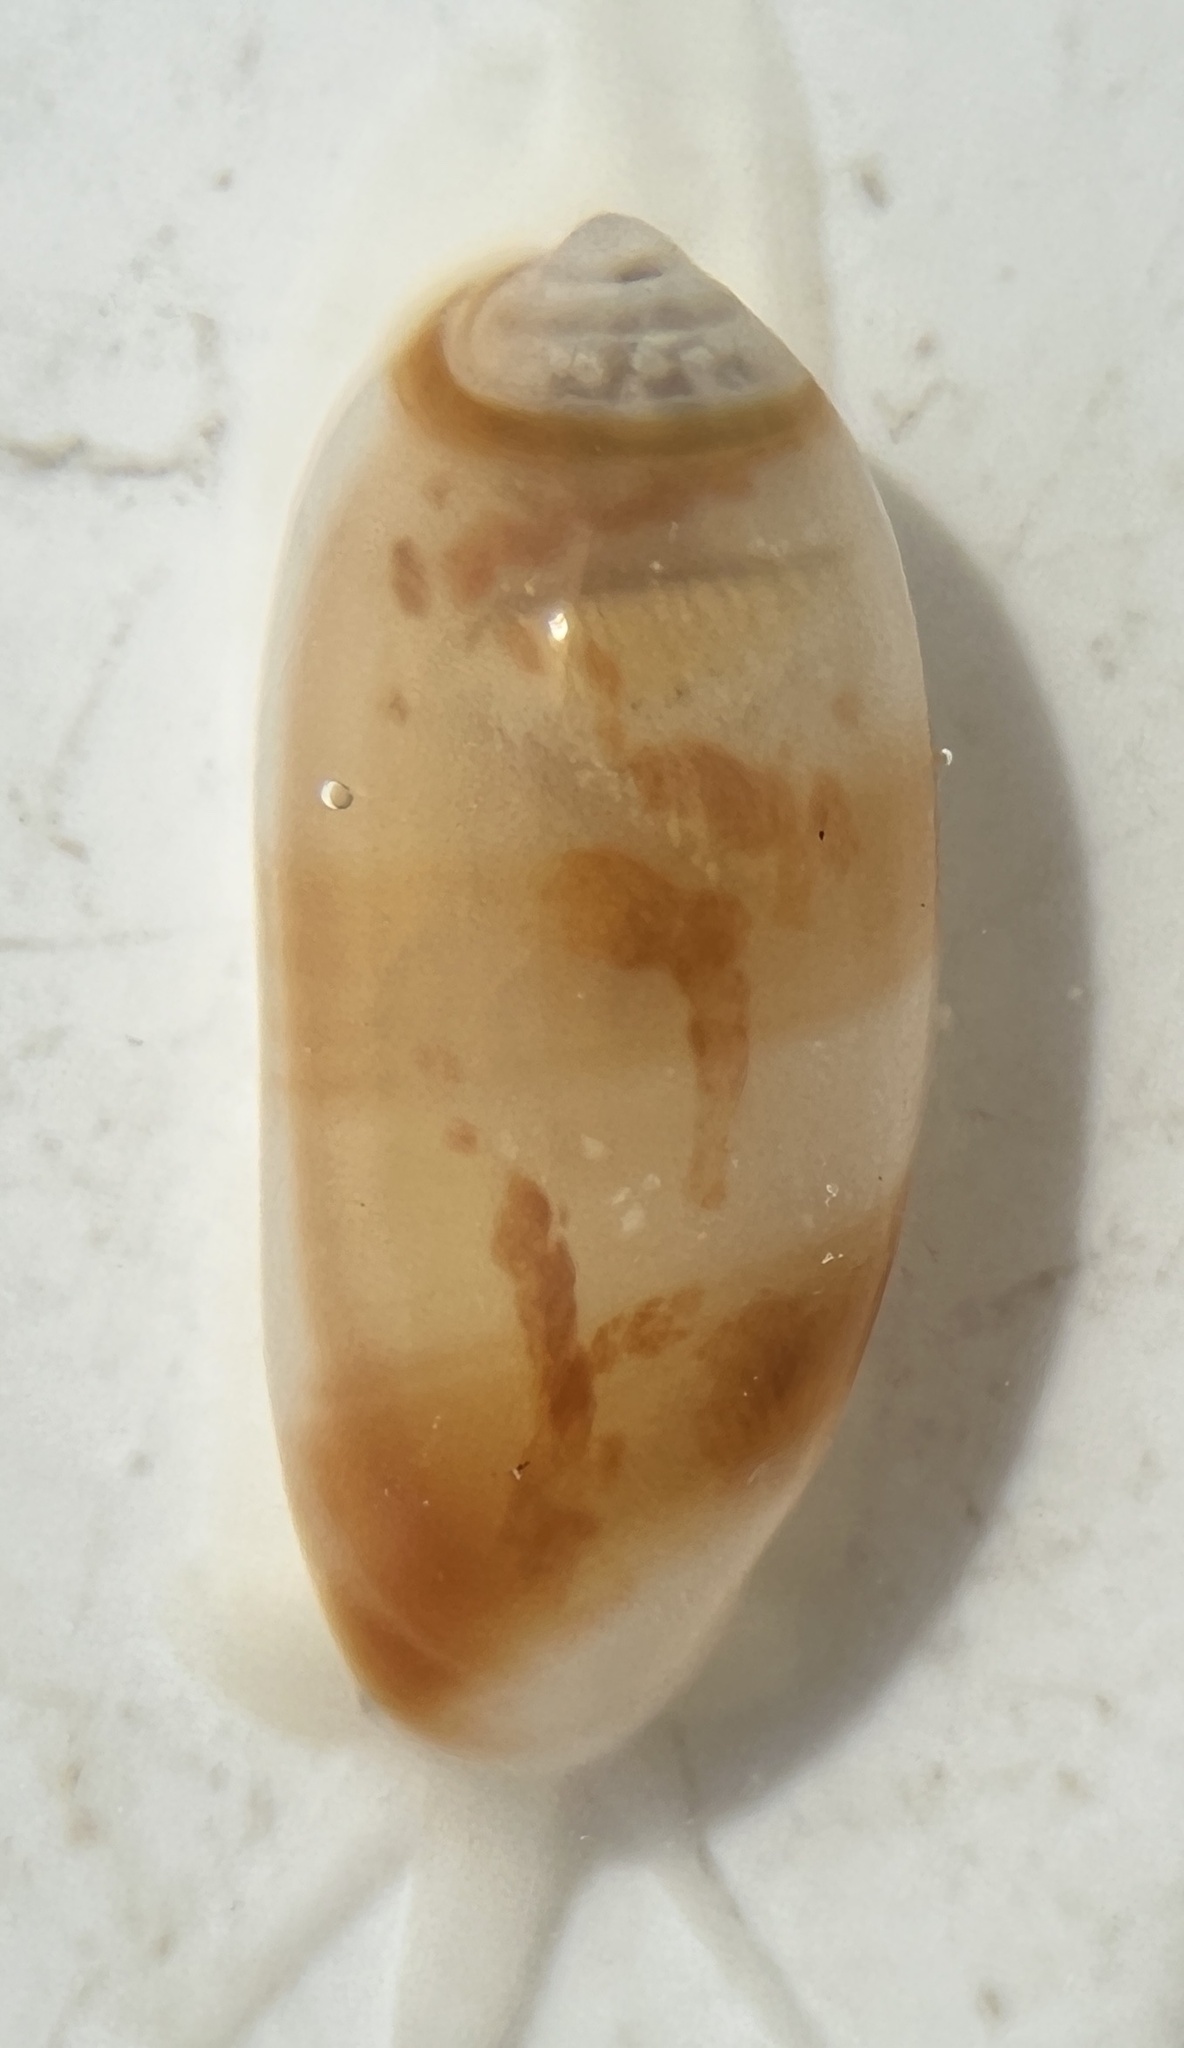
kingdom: Animalia
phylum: Mollusca
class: Gastropoda
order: Neogastropoda
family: Marginellidae
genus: Volvarina
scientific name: Volvarina albolineata
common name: White-line marginella
